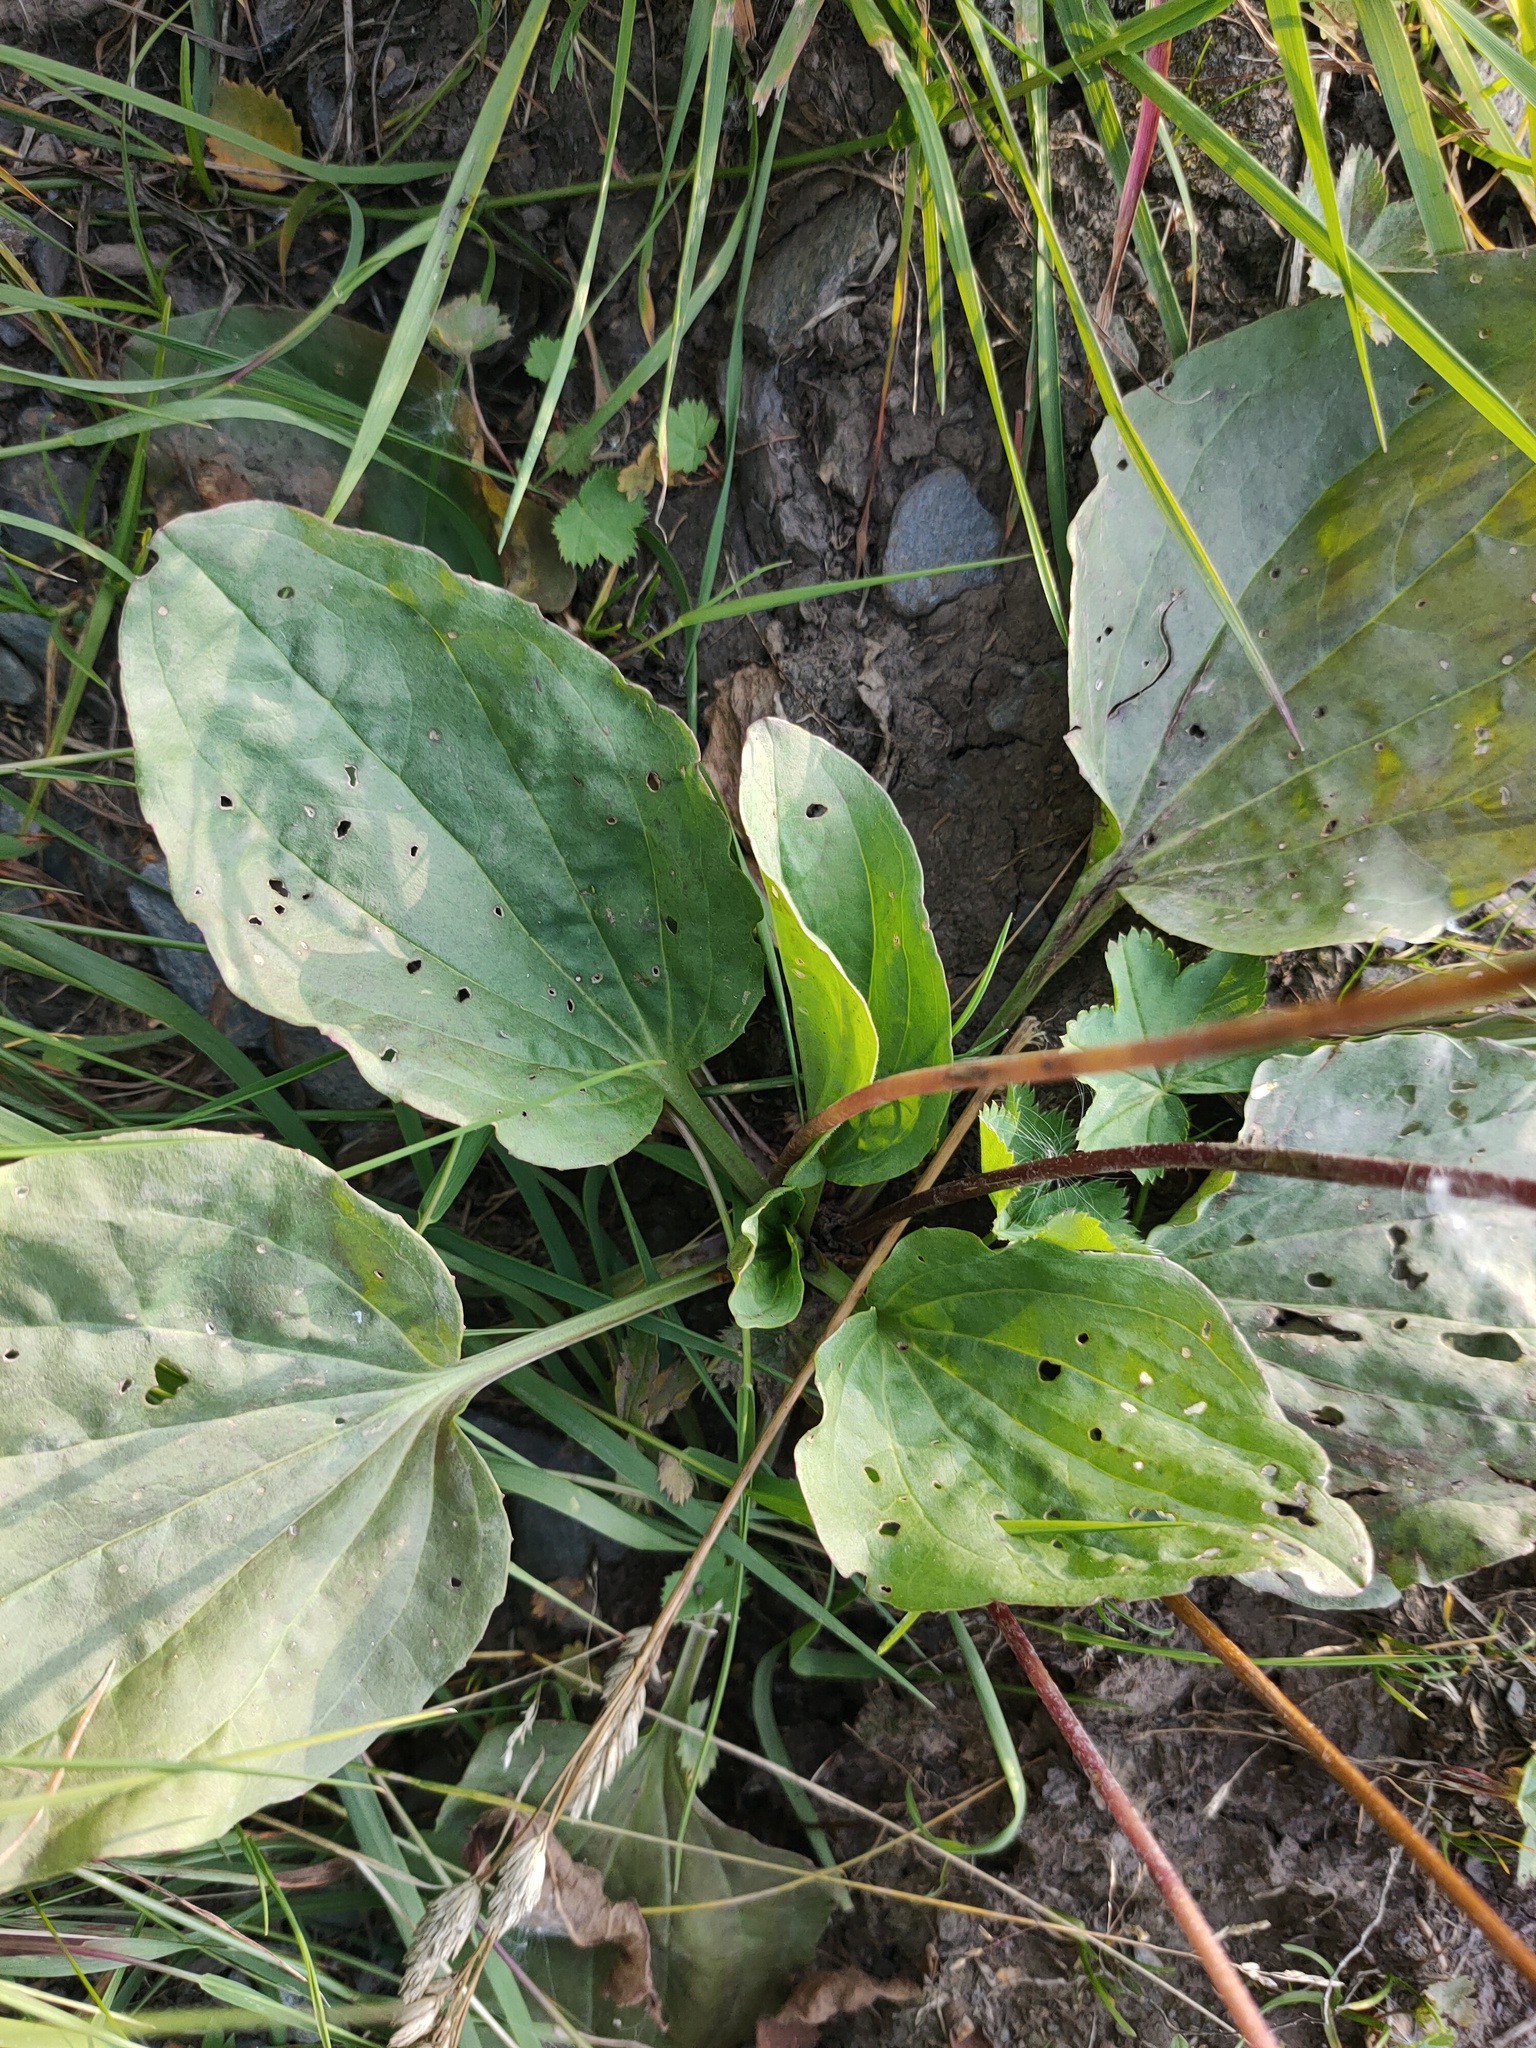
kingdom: Plantae
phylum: Tracheophyta
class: Magnoliopsida
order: Lamiales
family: Plantaginaceae
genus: Plantago
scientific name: Plantago major
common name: Common plantain
